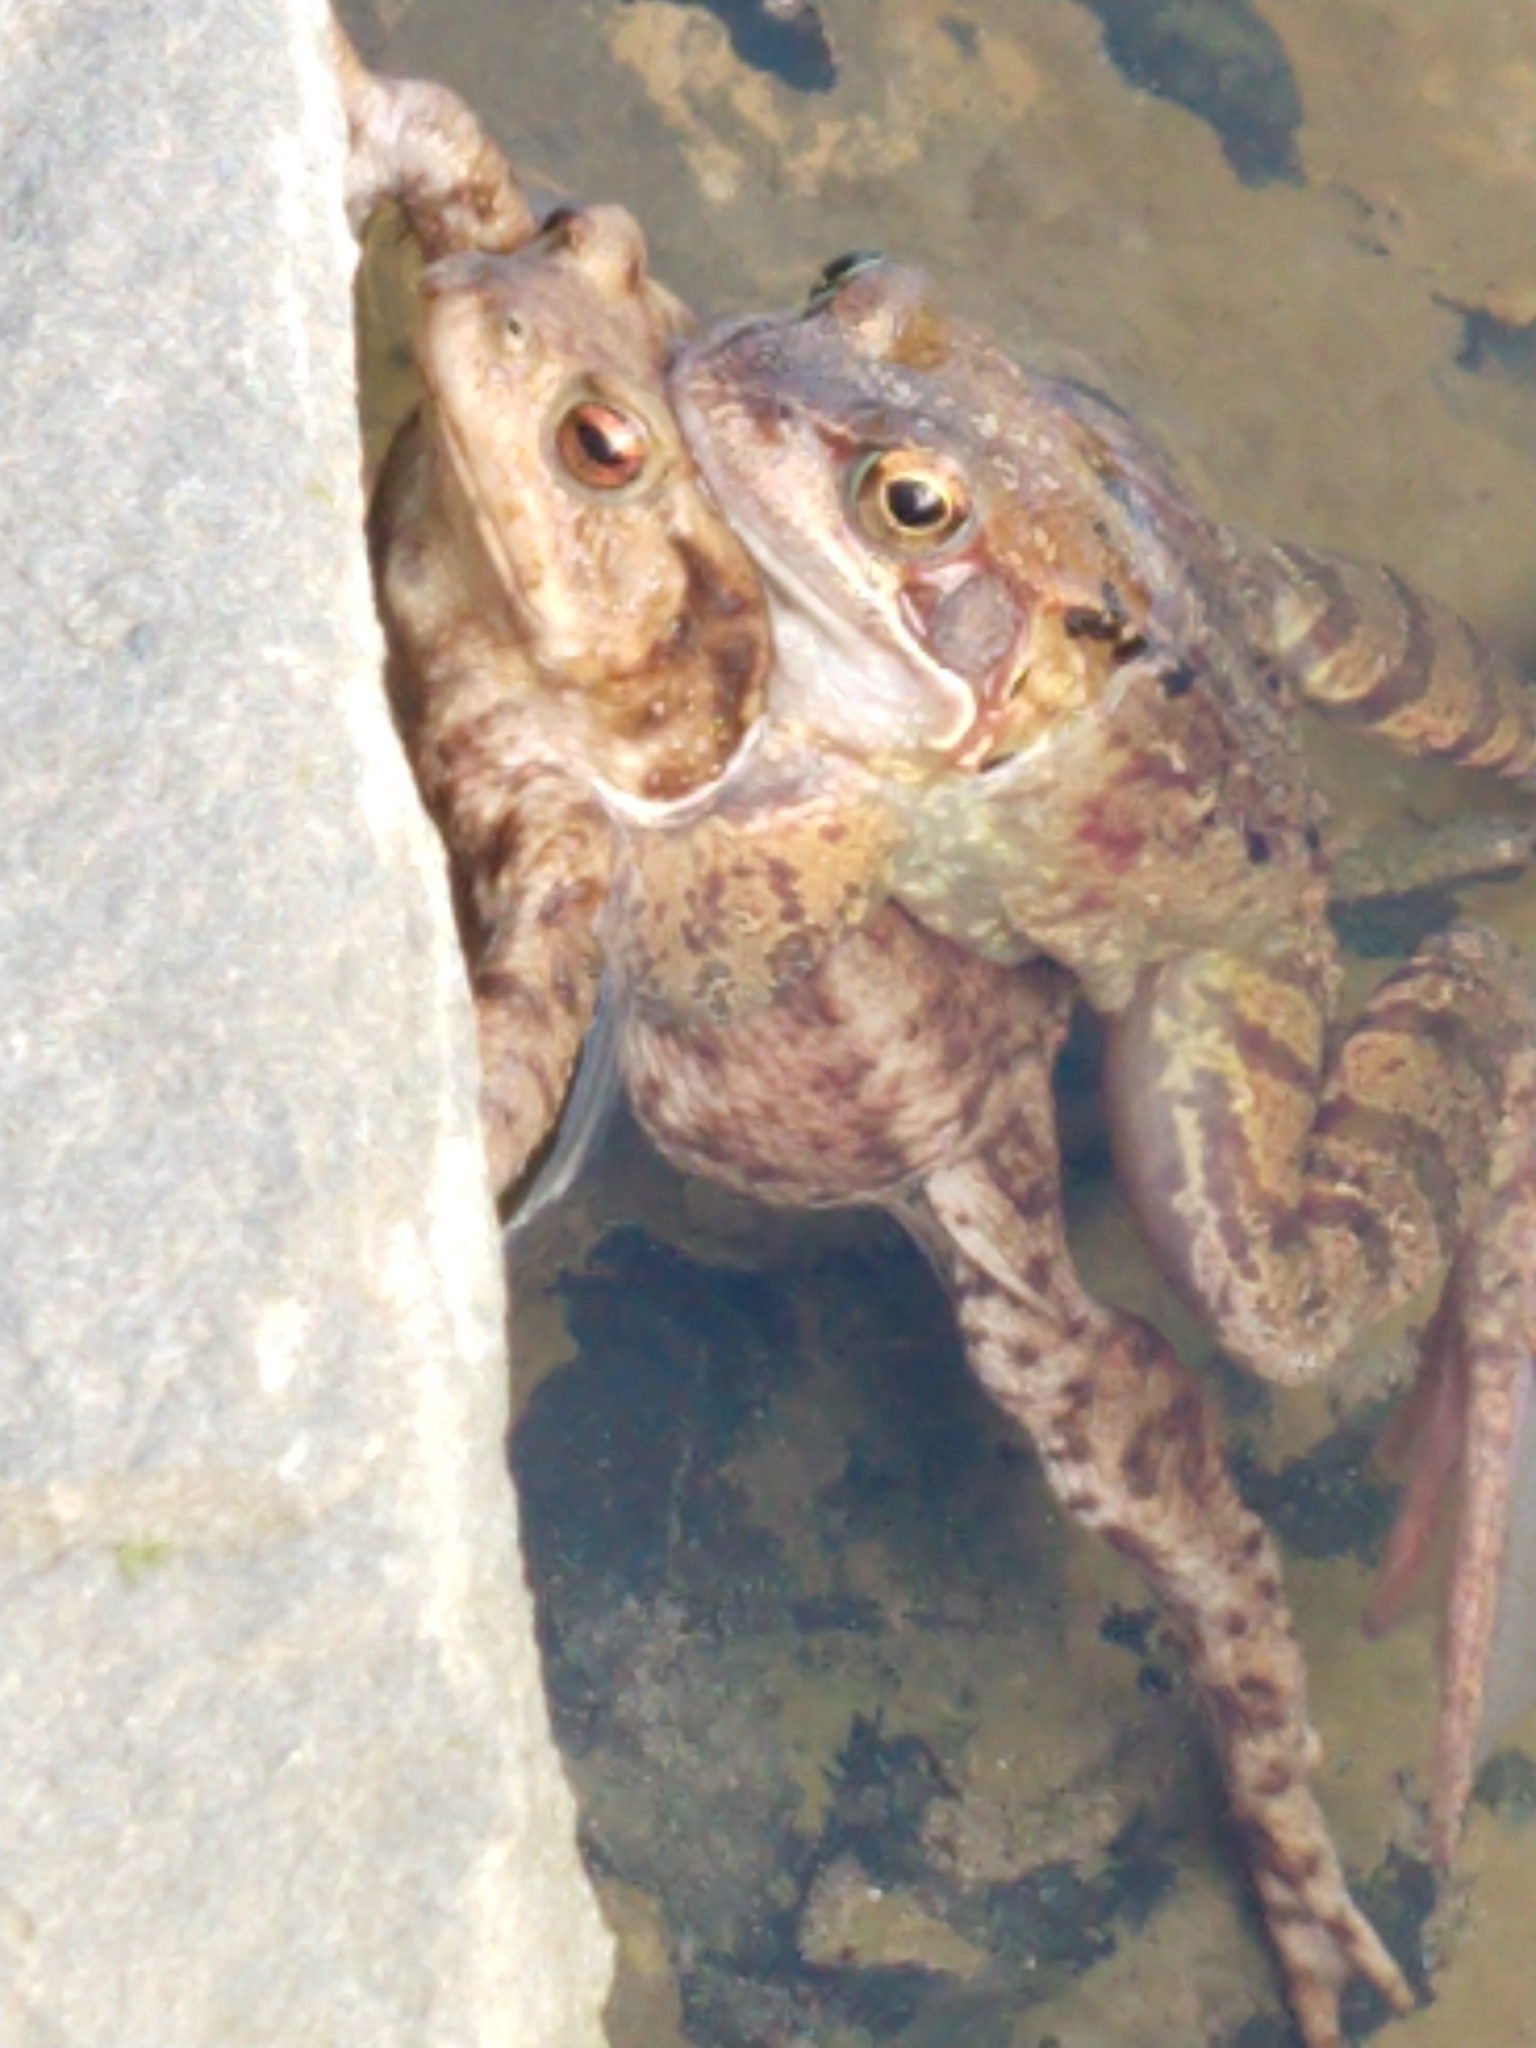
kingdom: Animalia
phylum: Chordata
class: Amphibia
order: Anura
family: Ranidae
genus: Rana
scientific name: Rana temporaria
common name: Common frog
